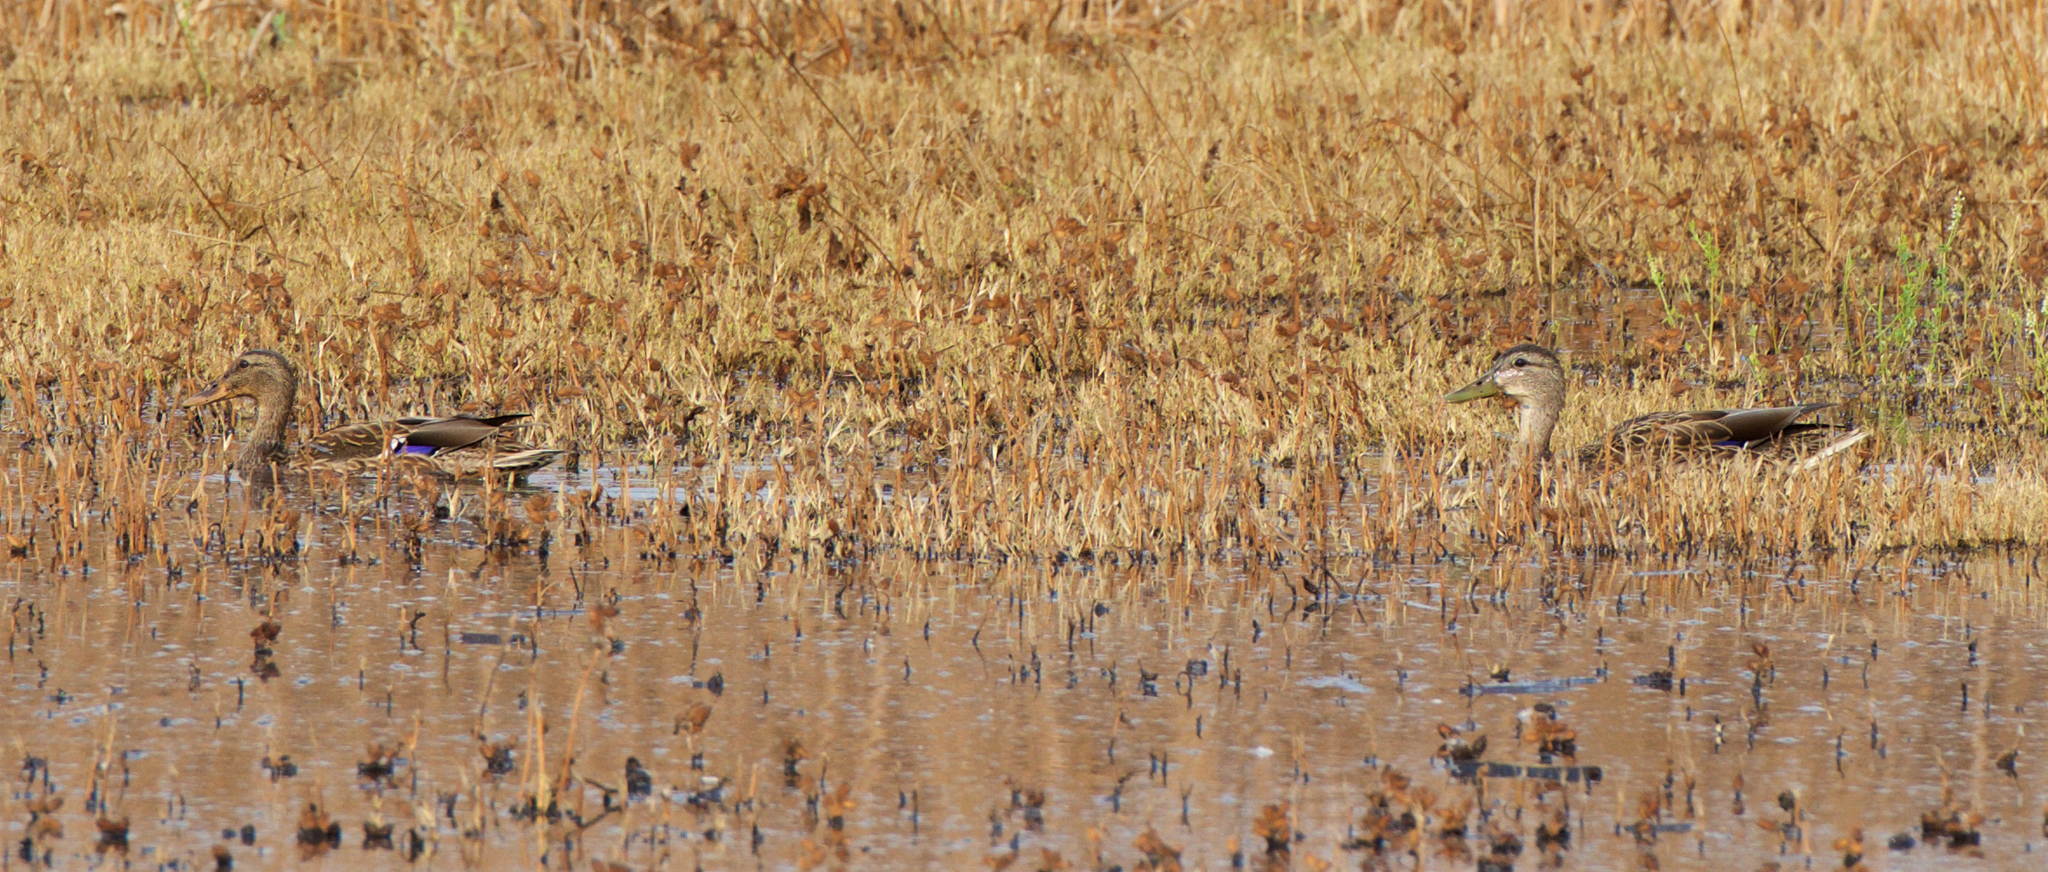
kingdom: Animalia
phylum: Chordata
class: Aves
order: Anseriformes
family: Anatidae
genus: Anas
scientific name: Anas platyrhynchos
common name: Mallard
